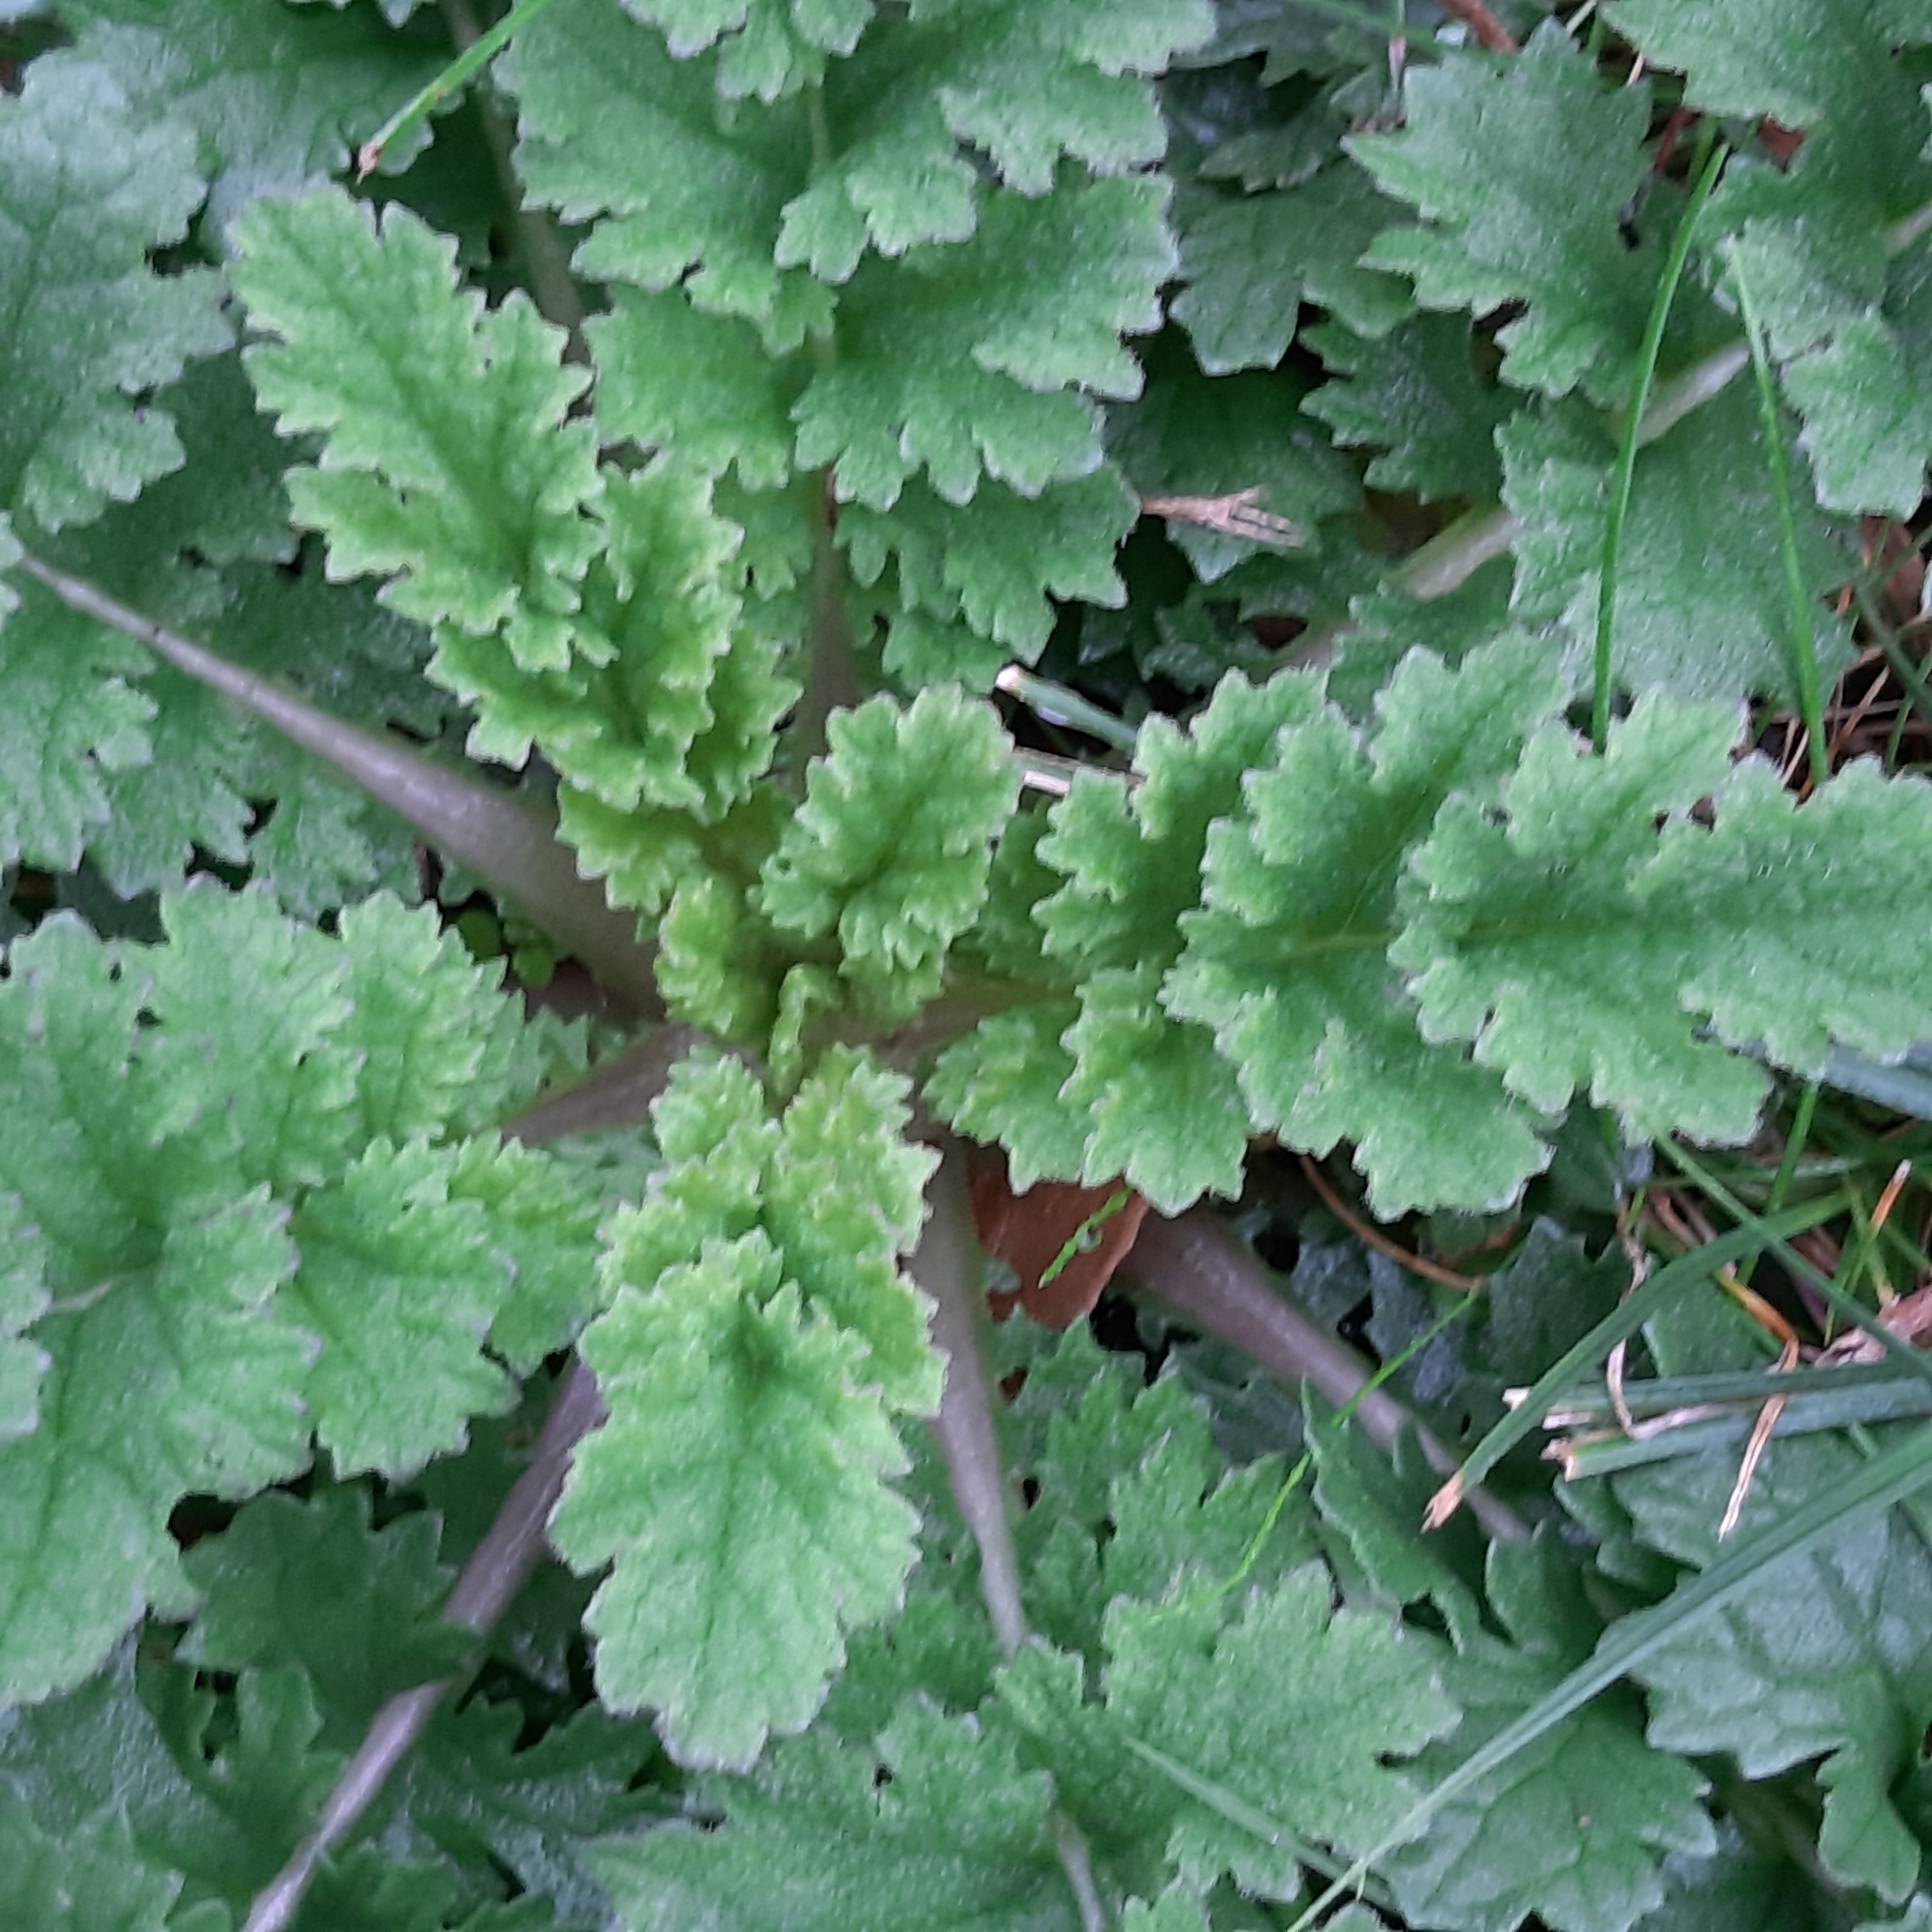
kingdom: Plantae
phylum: Tracheophyta
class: Magnoliopsida
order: Asterales
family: Asteraceae
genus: Jacobaea
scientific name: Jacobaea vulgaris
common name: Stinking willie
